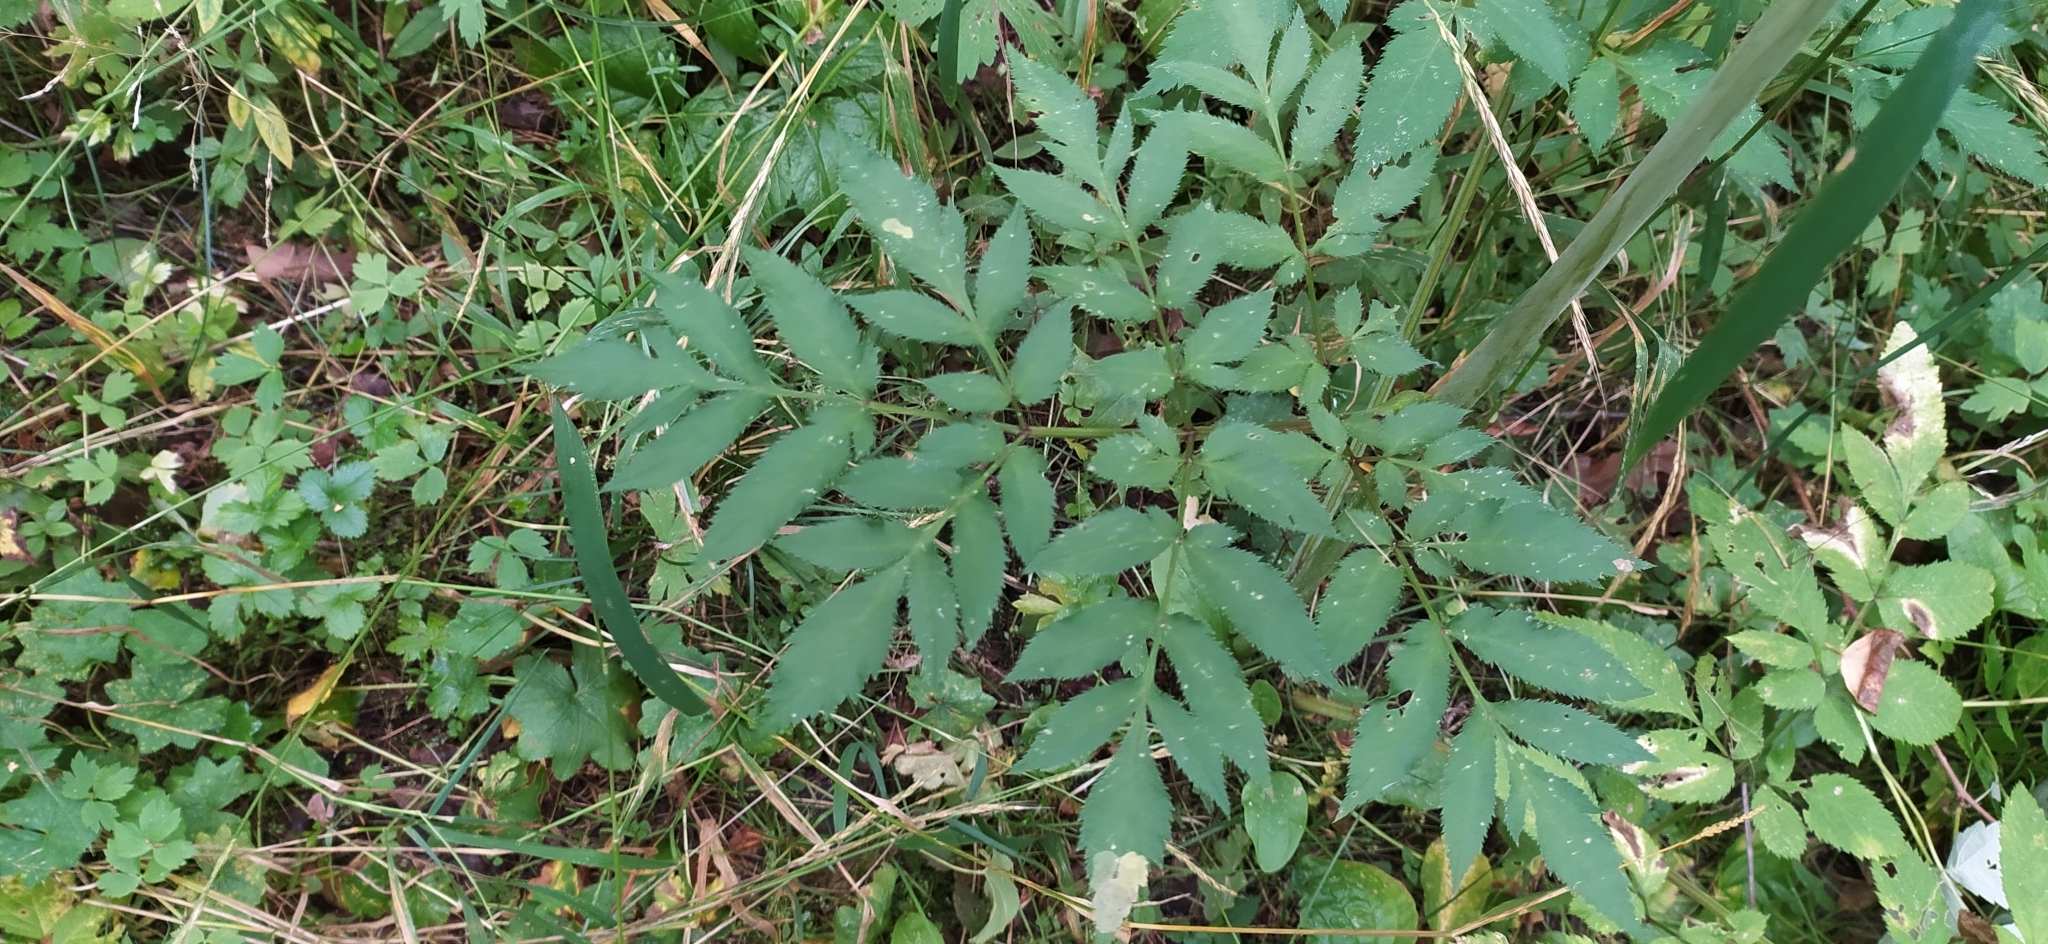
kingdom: Plantae
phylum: Tracheophyta
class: Magnoliopsida
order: Apiales
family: Apiaceae
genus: Angelica
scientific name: Angelica sylvestris
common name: Wild angelica
